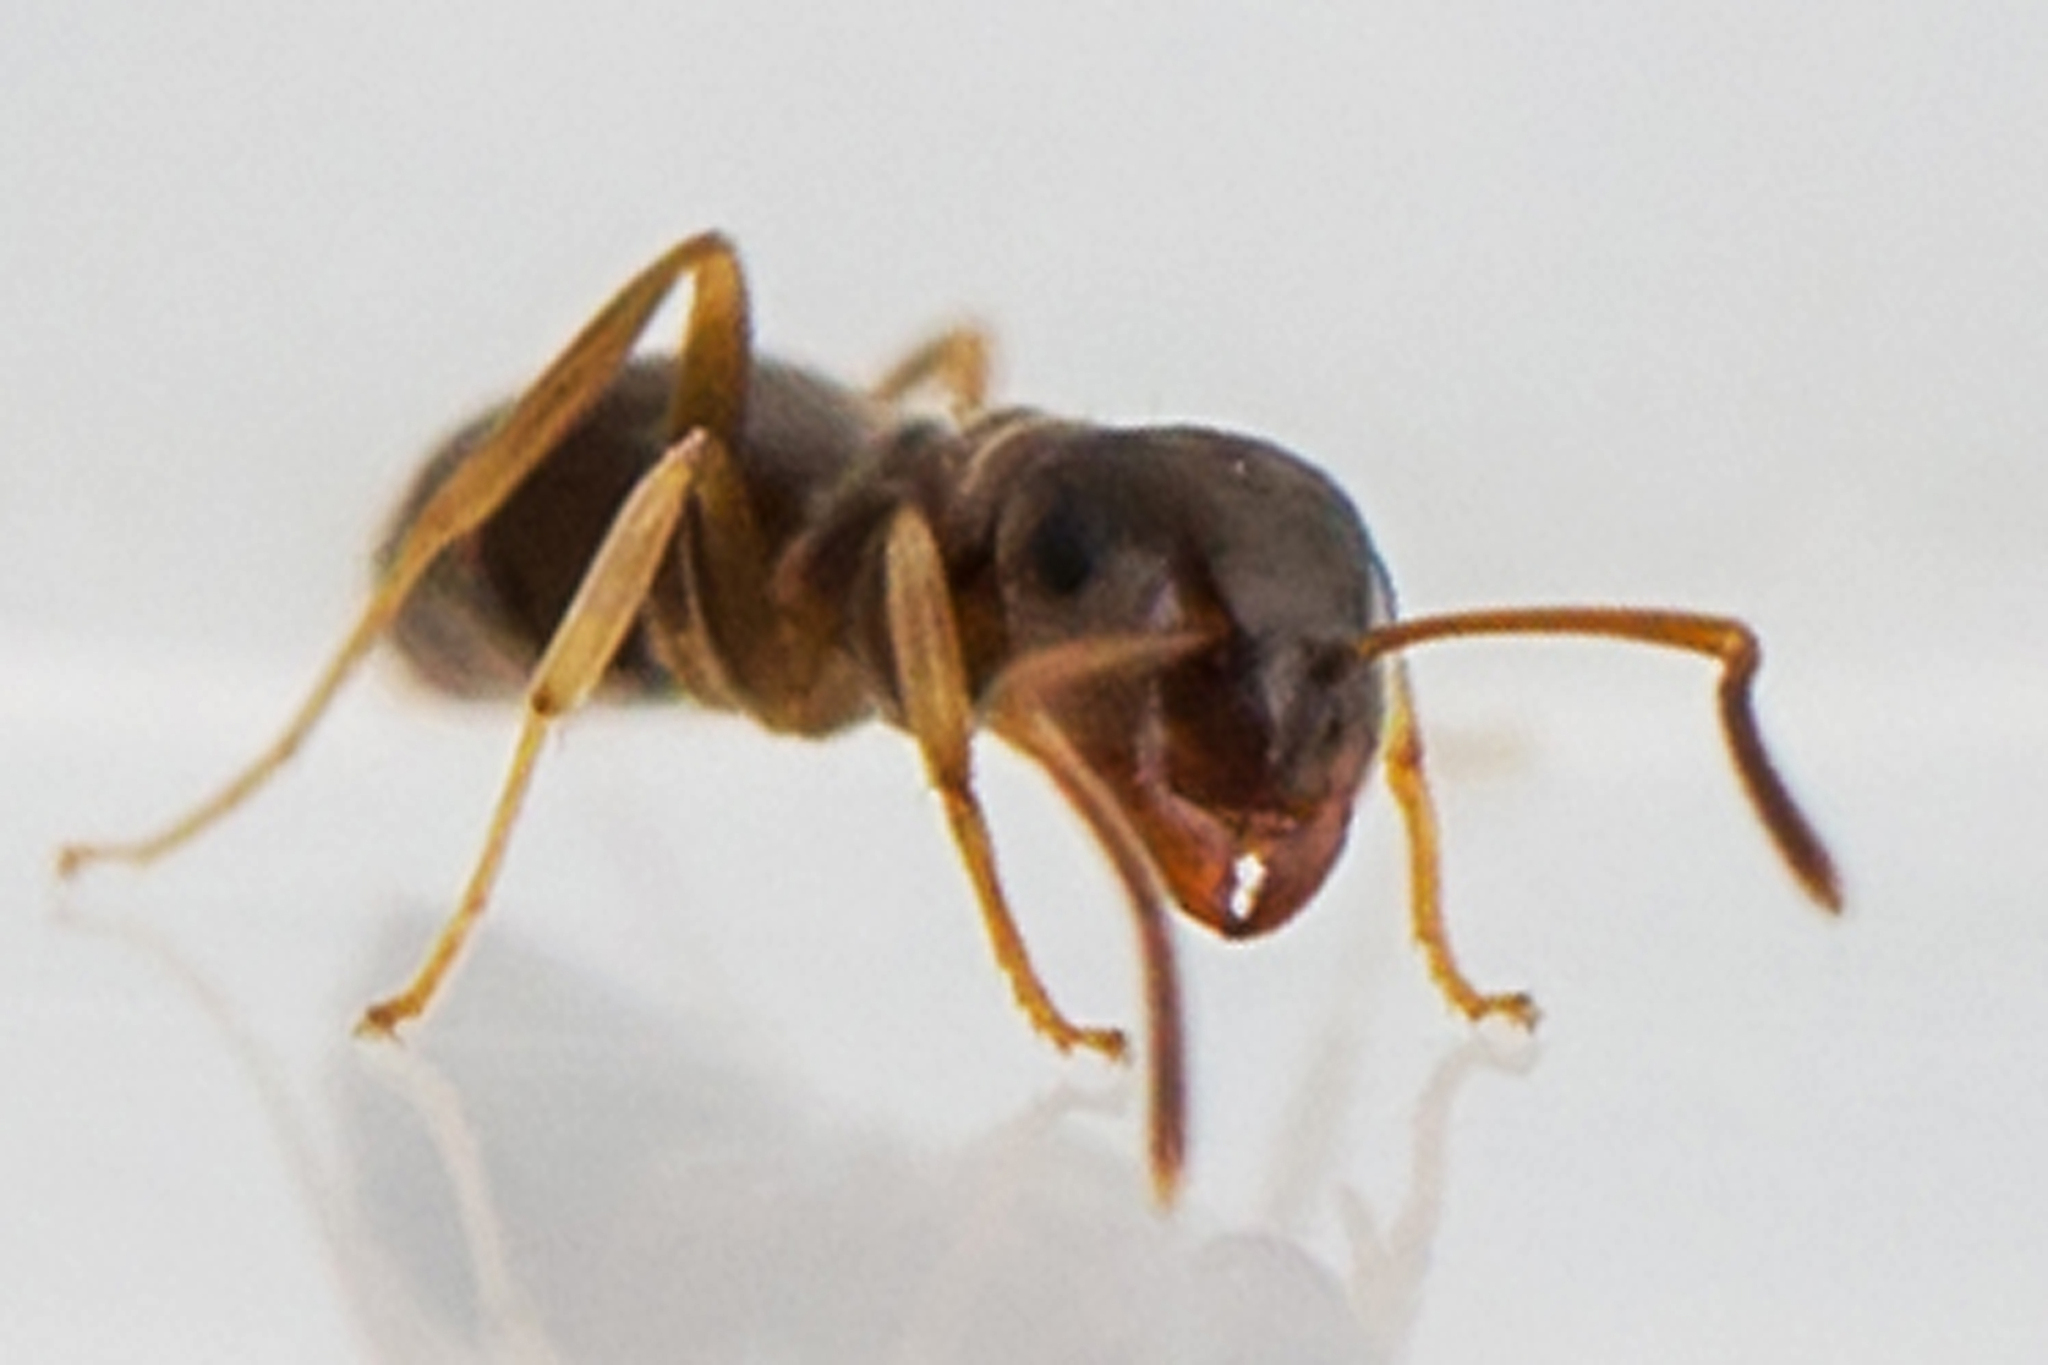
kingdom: Animalia
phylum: Arthropoda
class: Insecta
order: Hymenoptera
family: Formicidae
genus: Lasius
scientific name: Lasius neoniger
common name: Turfgrass ant
